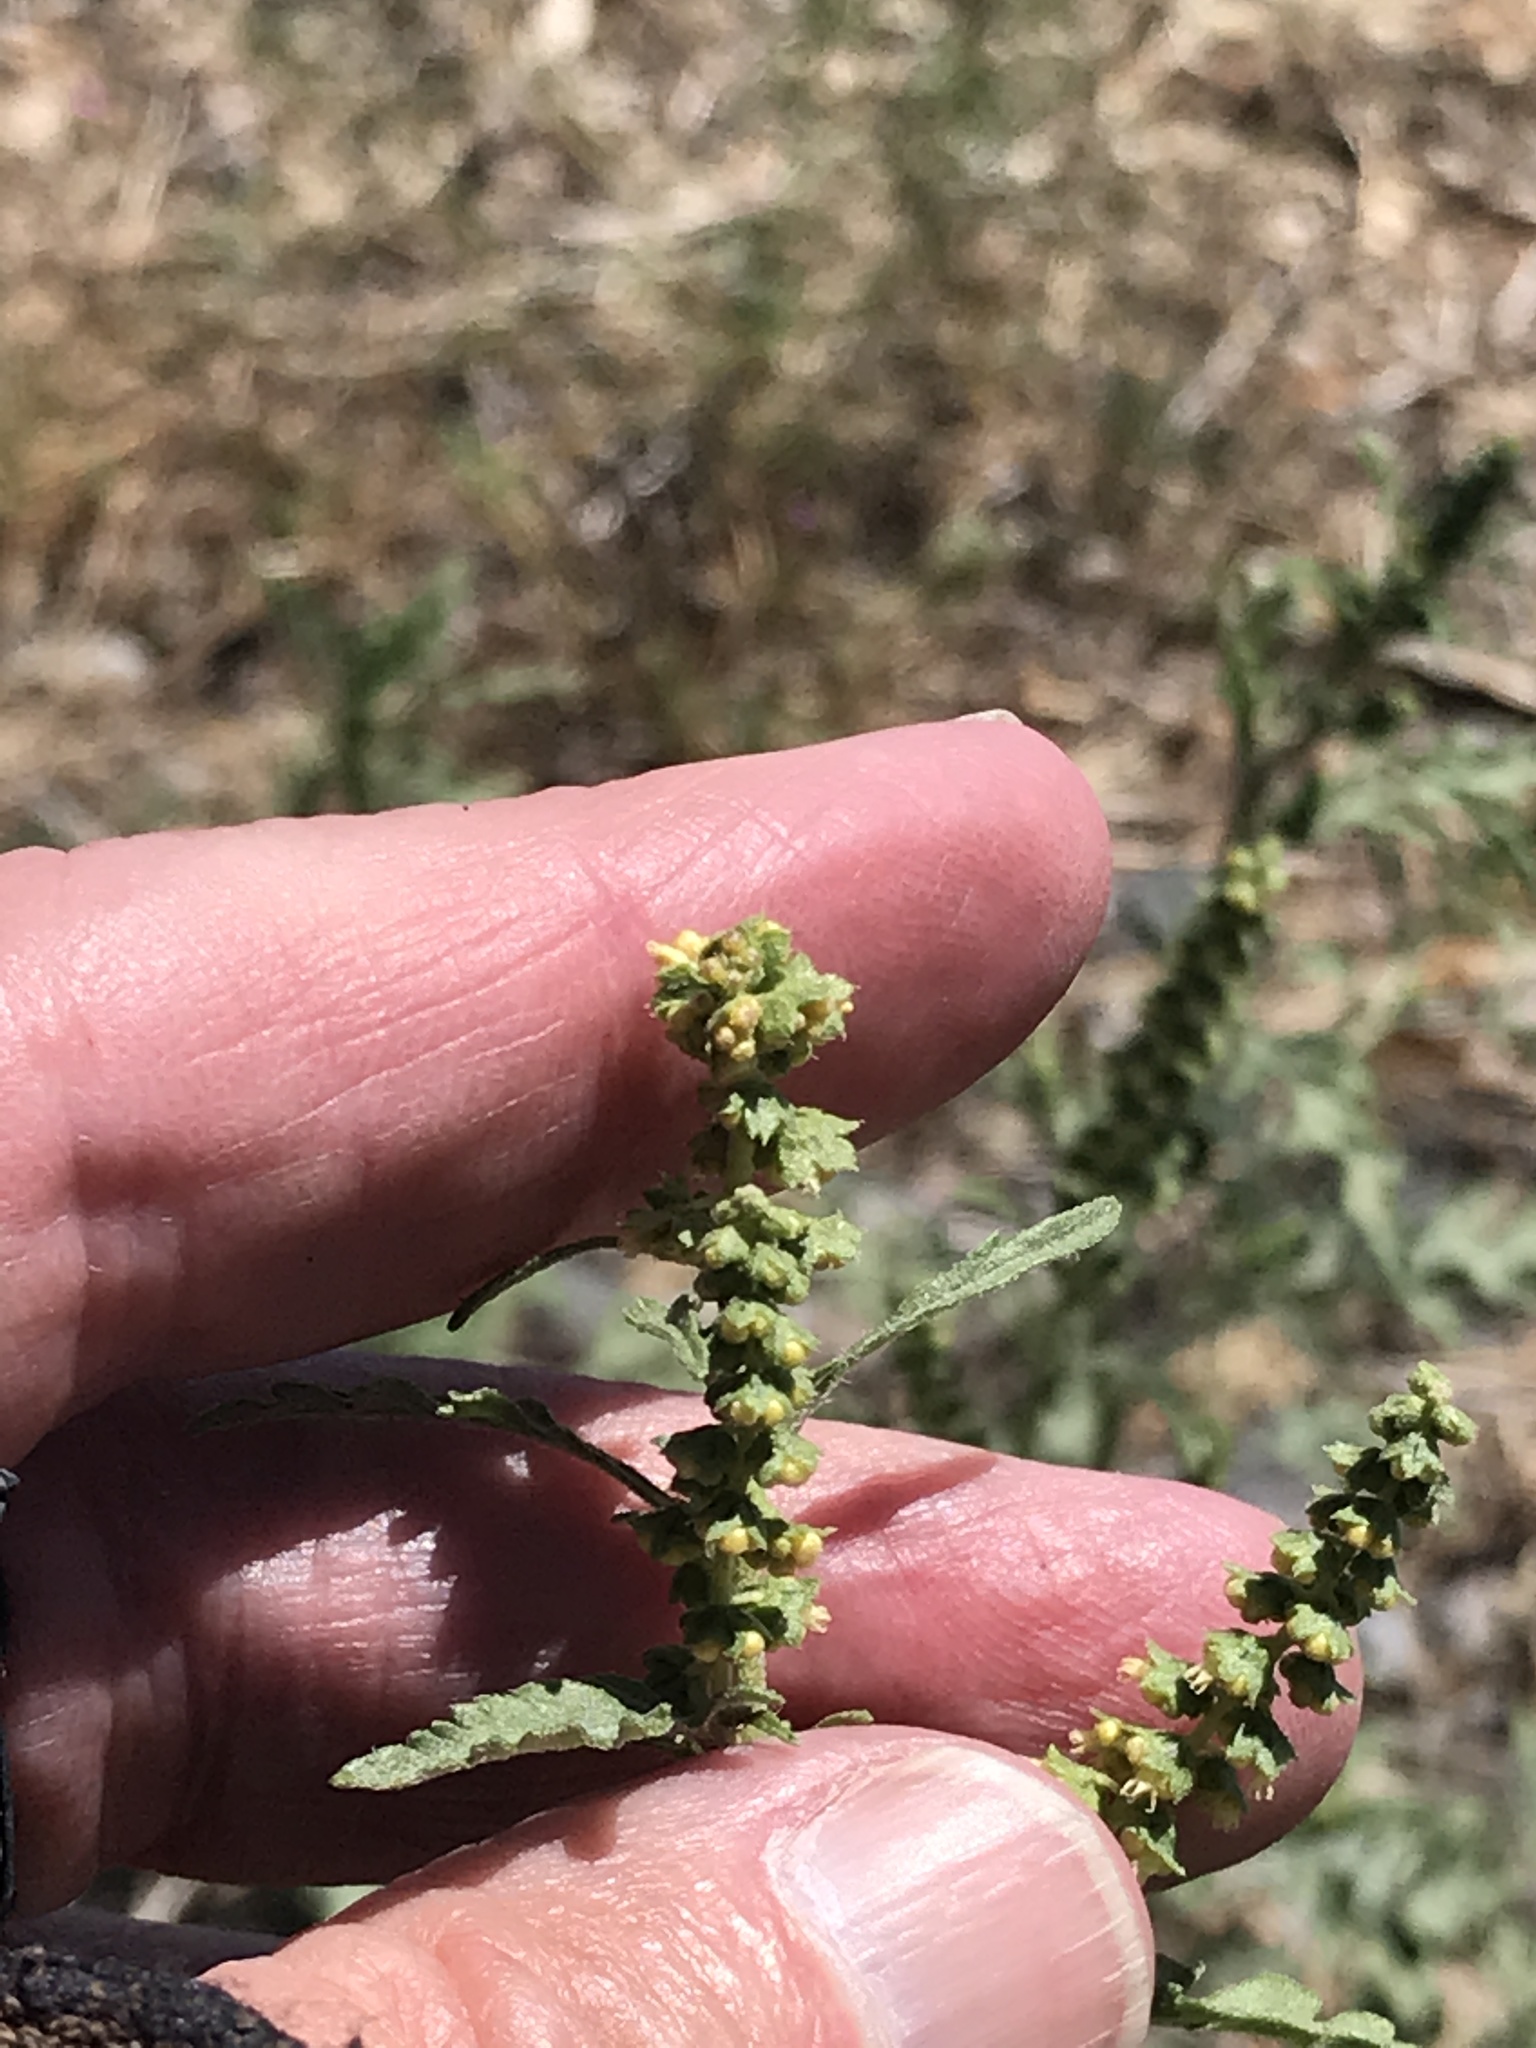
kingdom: Plantae
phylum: Tracheophyta
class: Magnoliopsida
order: Asterales
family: Asteraceae
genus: Ambrosia
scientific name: Ambrosia acanthicarpa
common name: Hooker's bur ragweed
